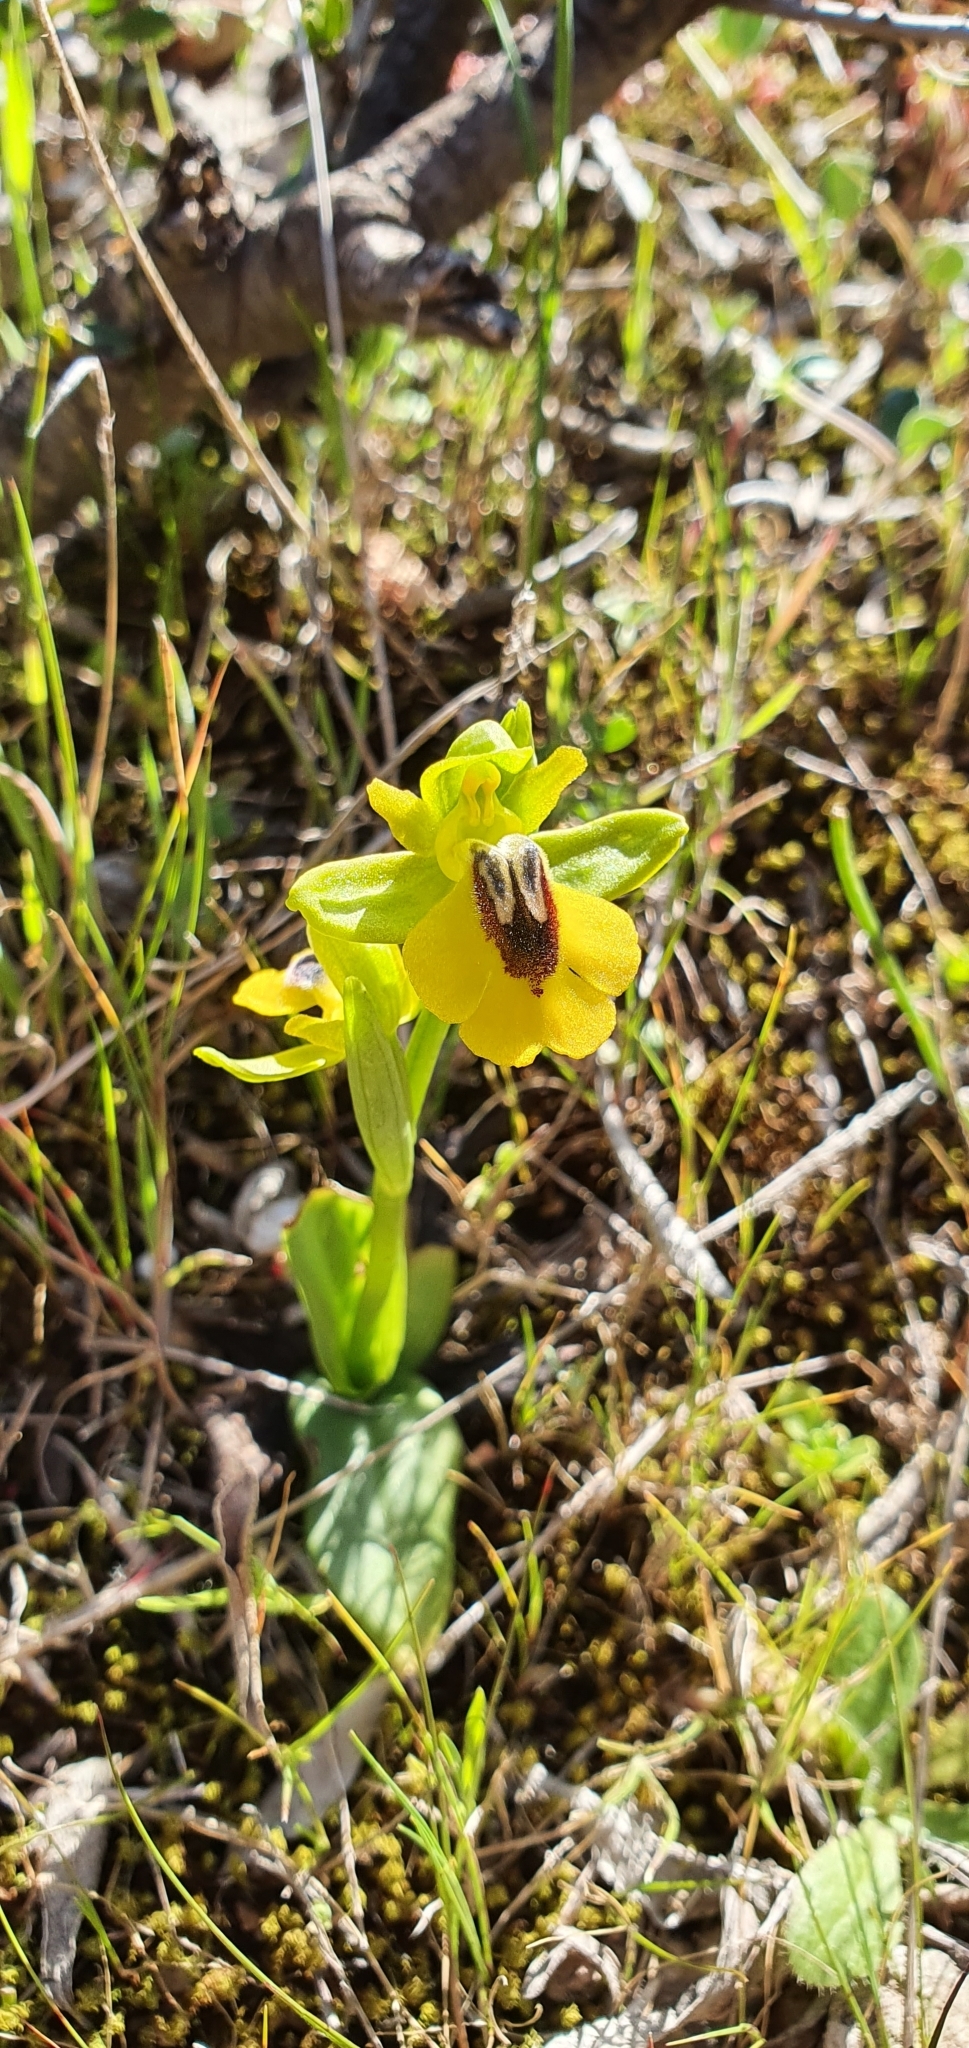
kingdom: Plantae
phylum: Tracheophyta
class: Liliopsida
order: Asparagales
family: Orchidaceae
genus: Ophrys
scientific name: Ophrys lutea
